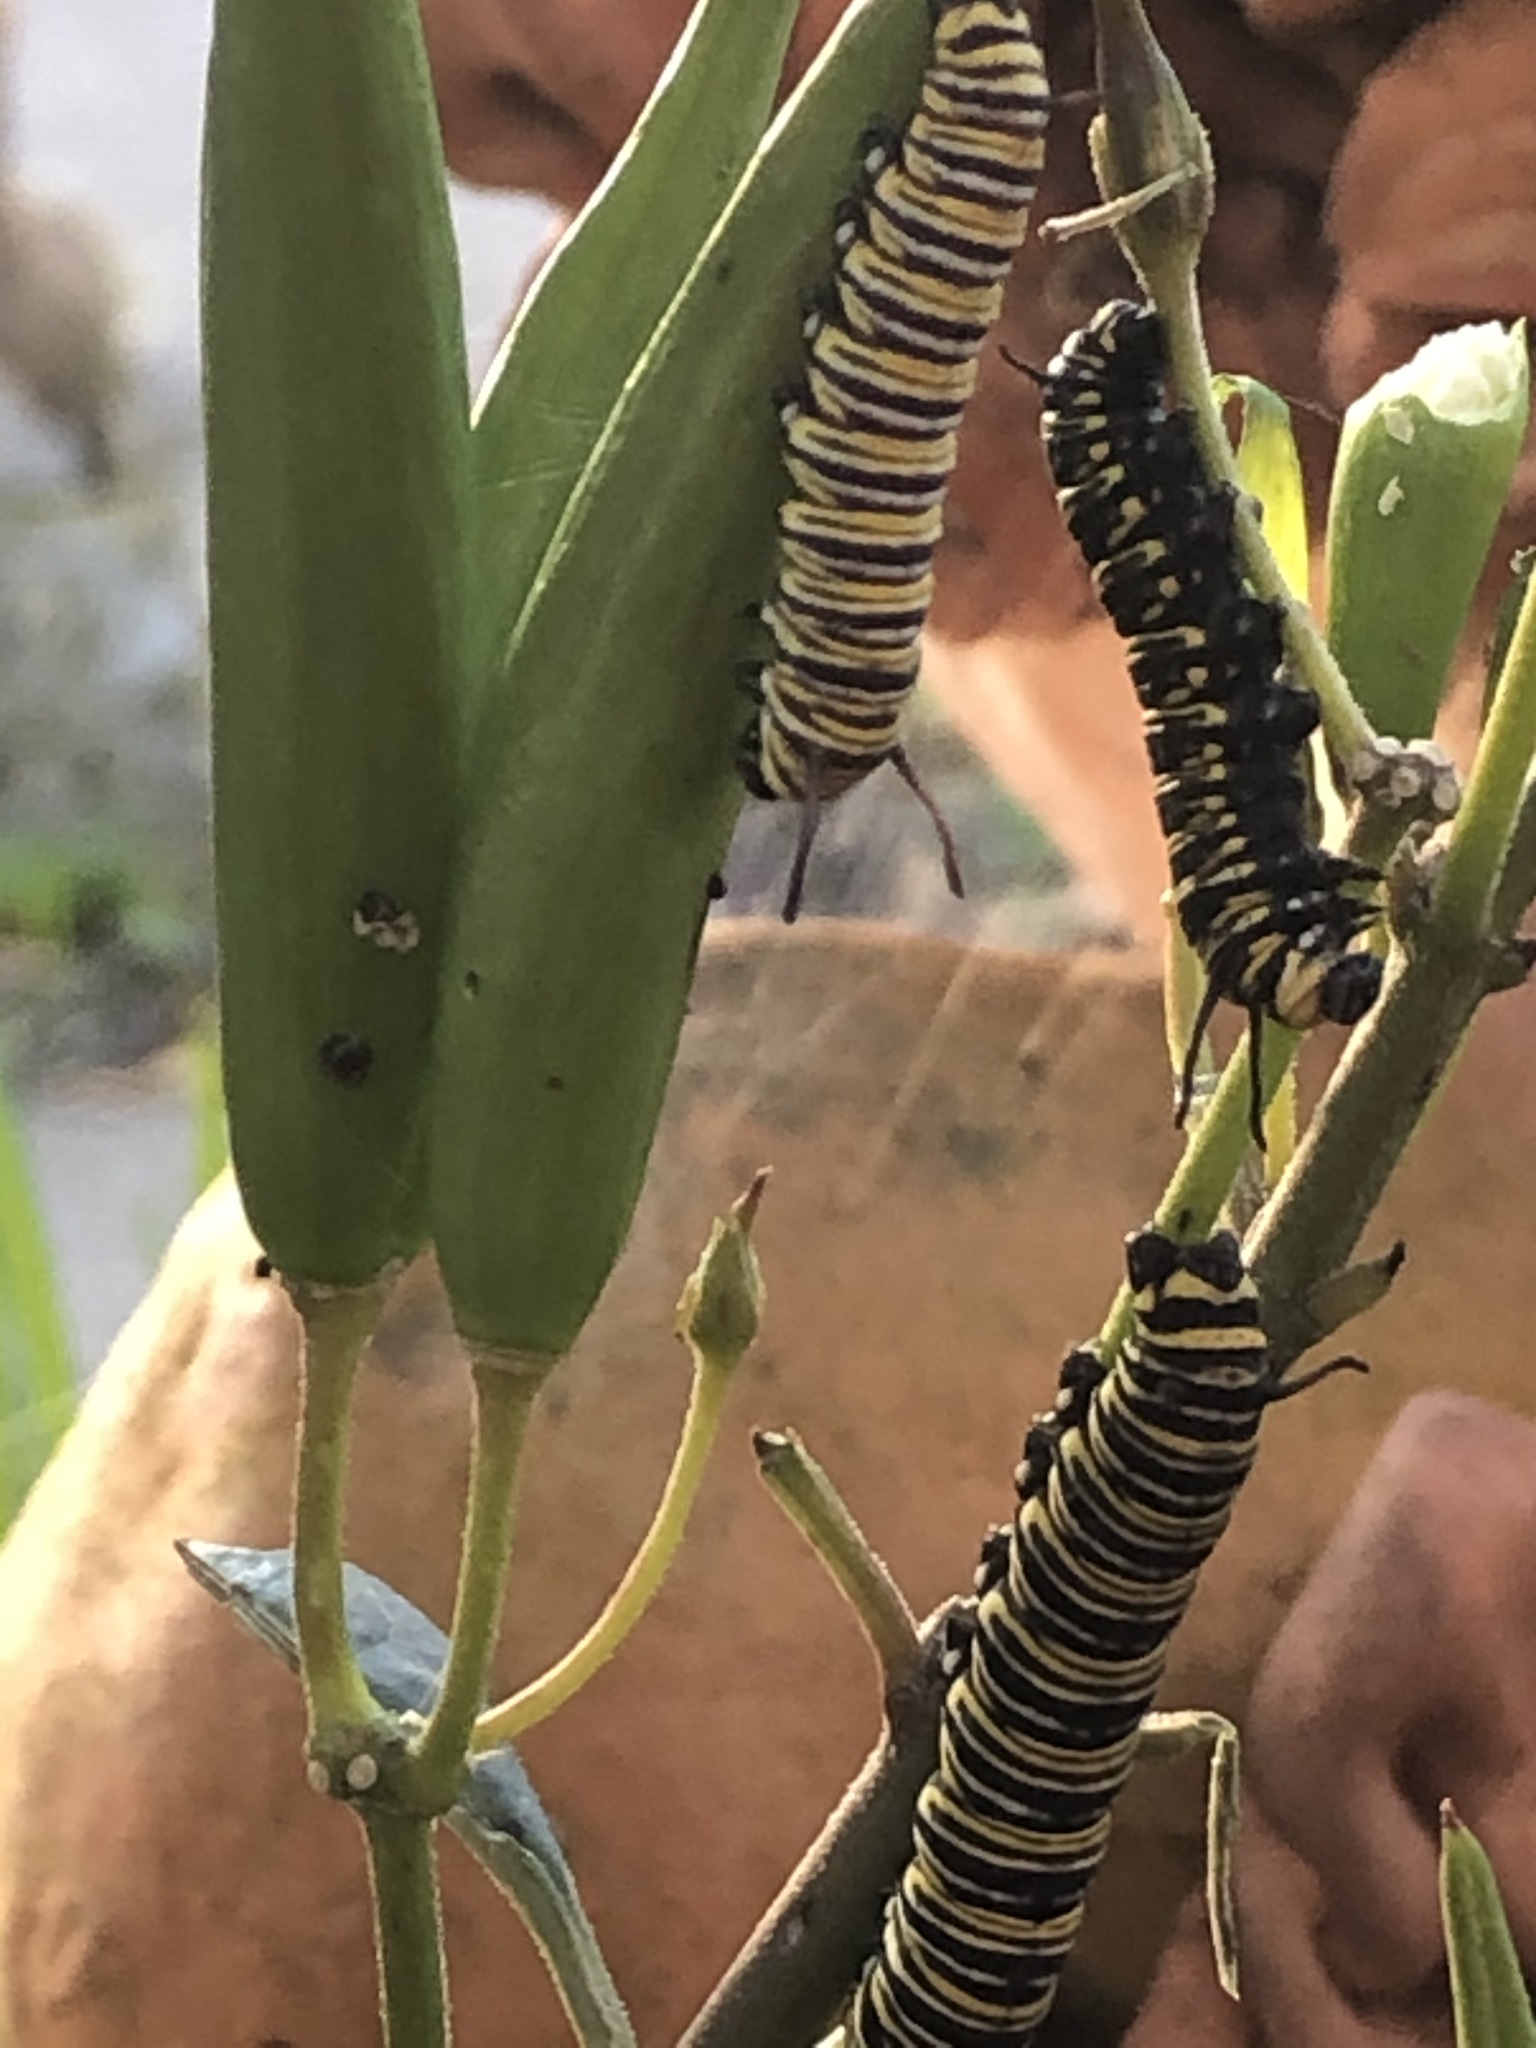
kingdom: Animalia
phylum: Arthropoda
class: Insecta
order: Lepidoptera
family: Nymphalidae
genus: Danaus
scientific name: Danaus plexippus
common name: Monarch
